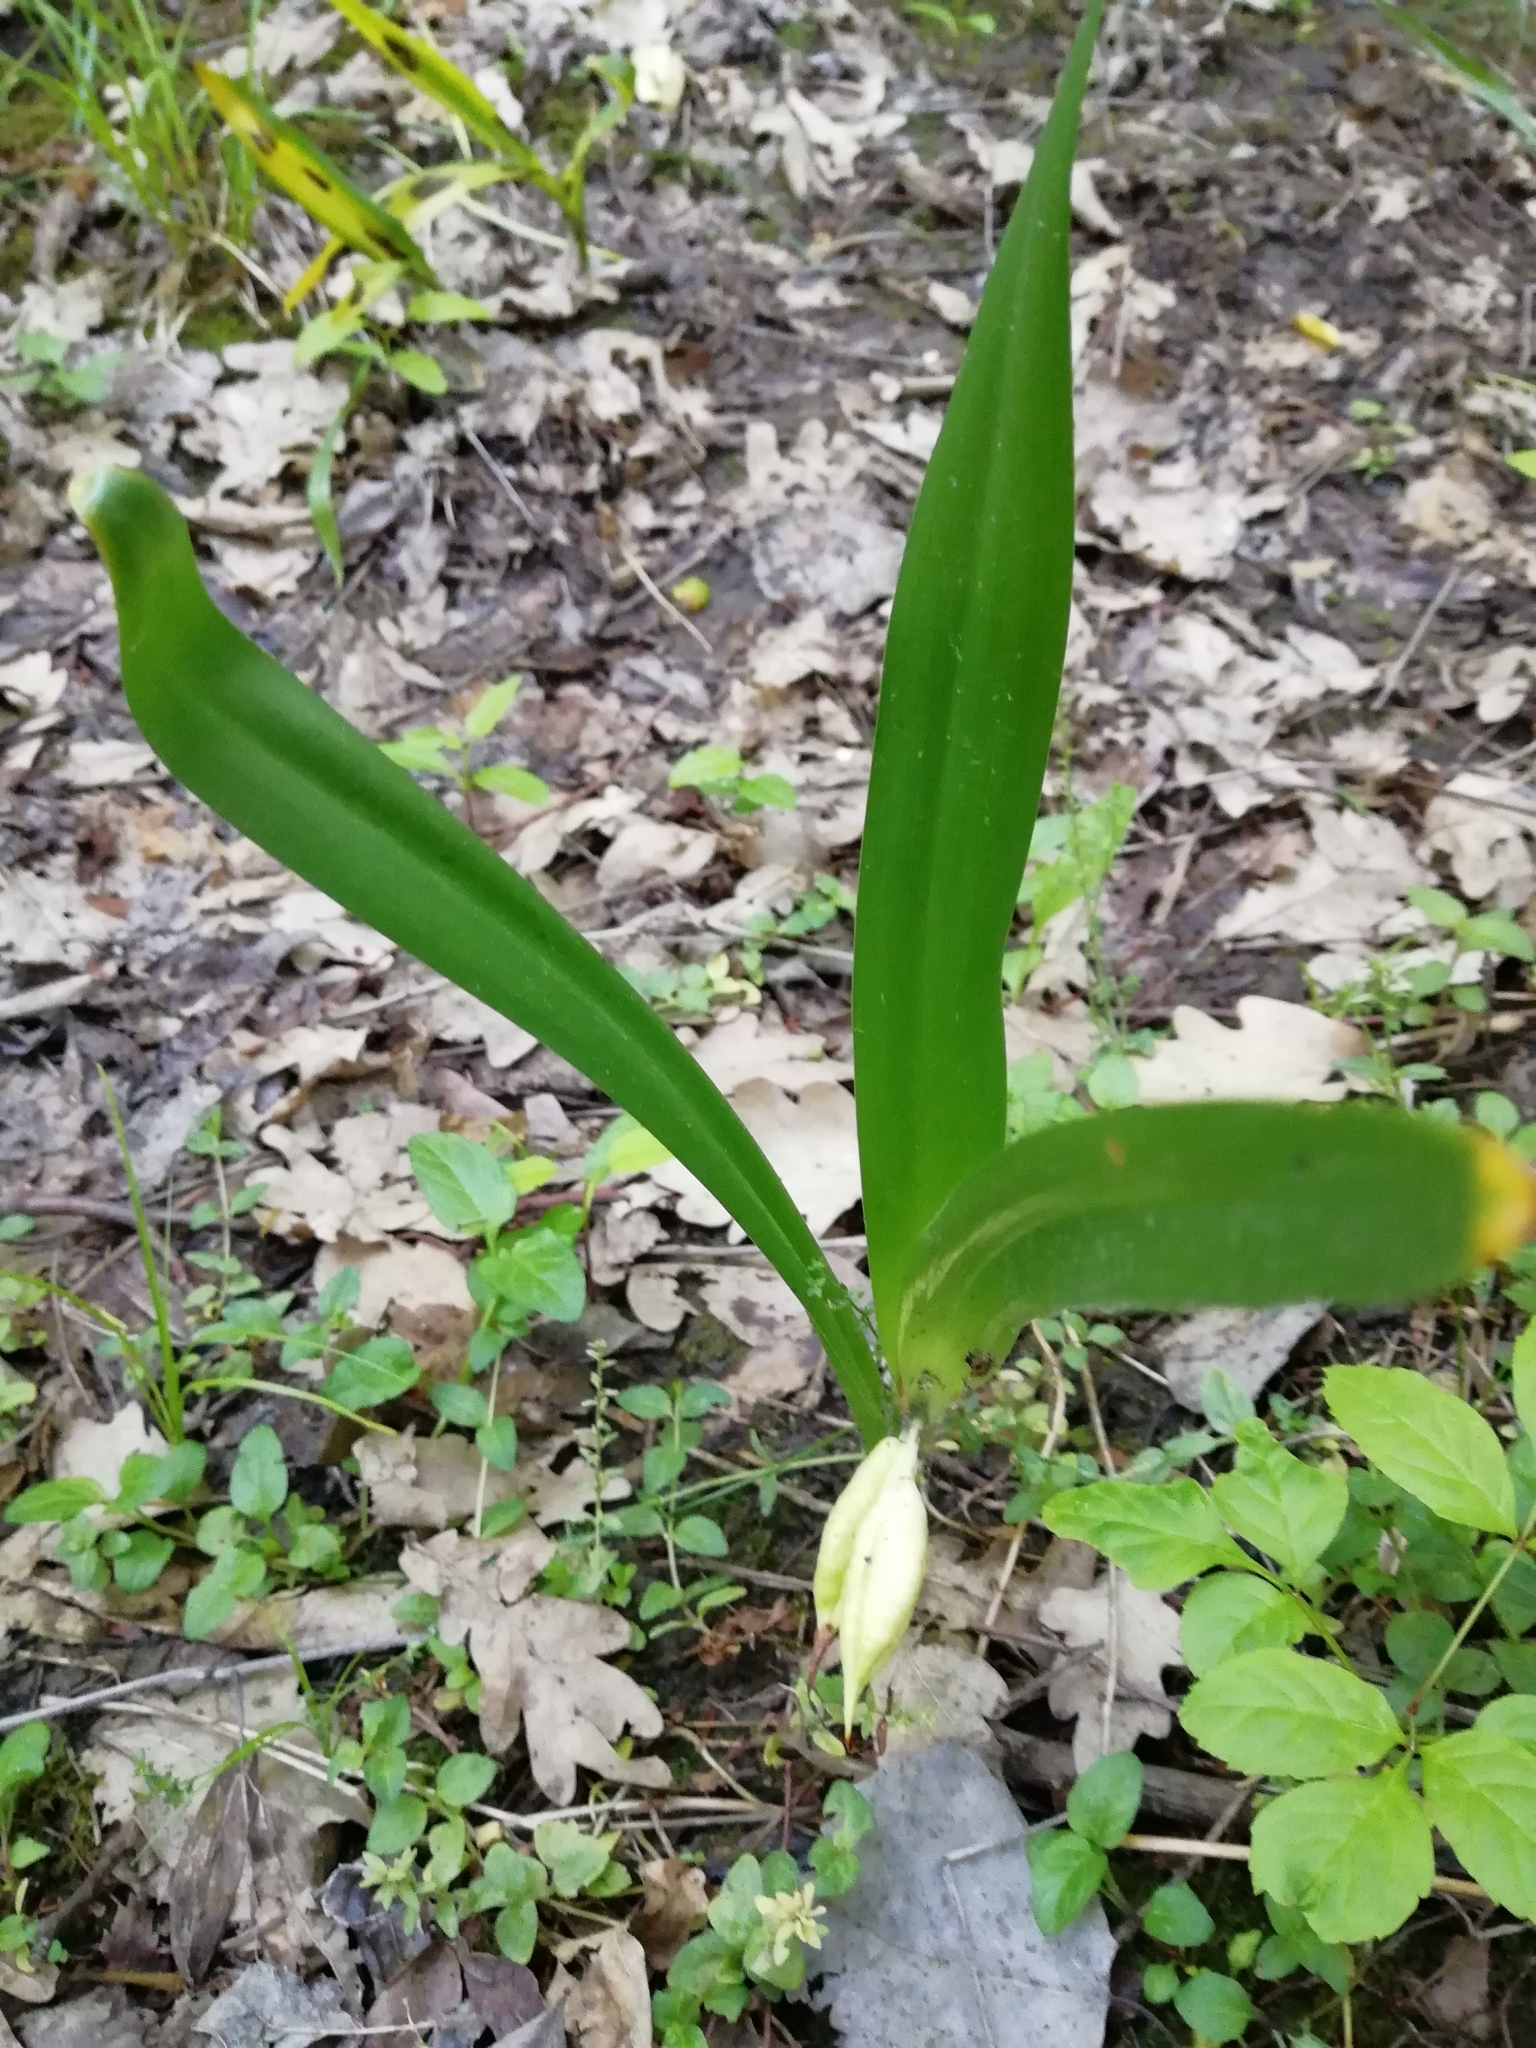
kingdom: Plantae
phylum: Tracheophyta
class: Liliopsida
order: Liliales
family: Colchicaceae
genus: Colchicum
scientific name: Colchicum umbrosum
